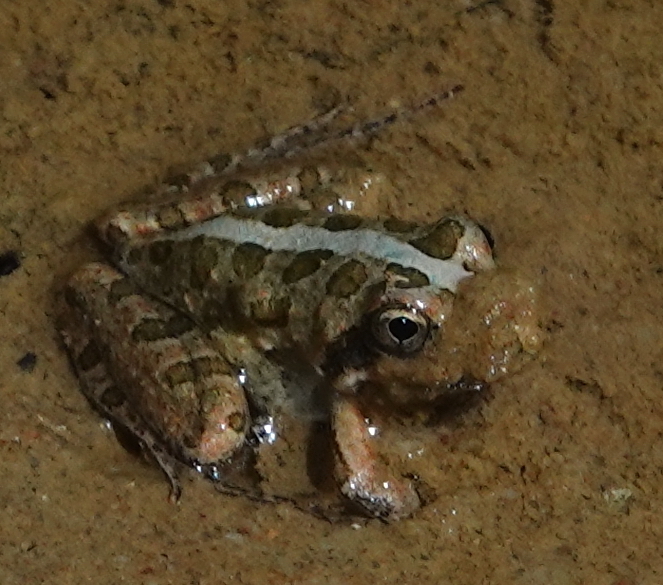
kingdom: Animalia
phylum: Chordata
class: Amphibia
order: Anura
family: Pyxicephalidae
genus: Strongylopus
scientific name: Strongylopus grayii
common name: Gray's stream frog
